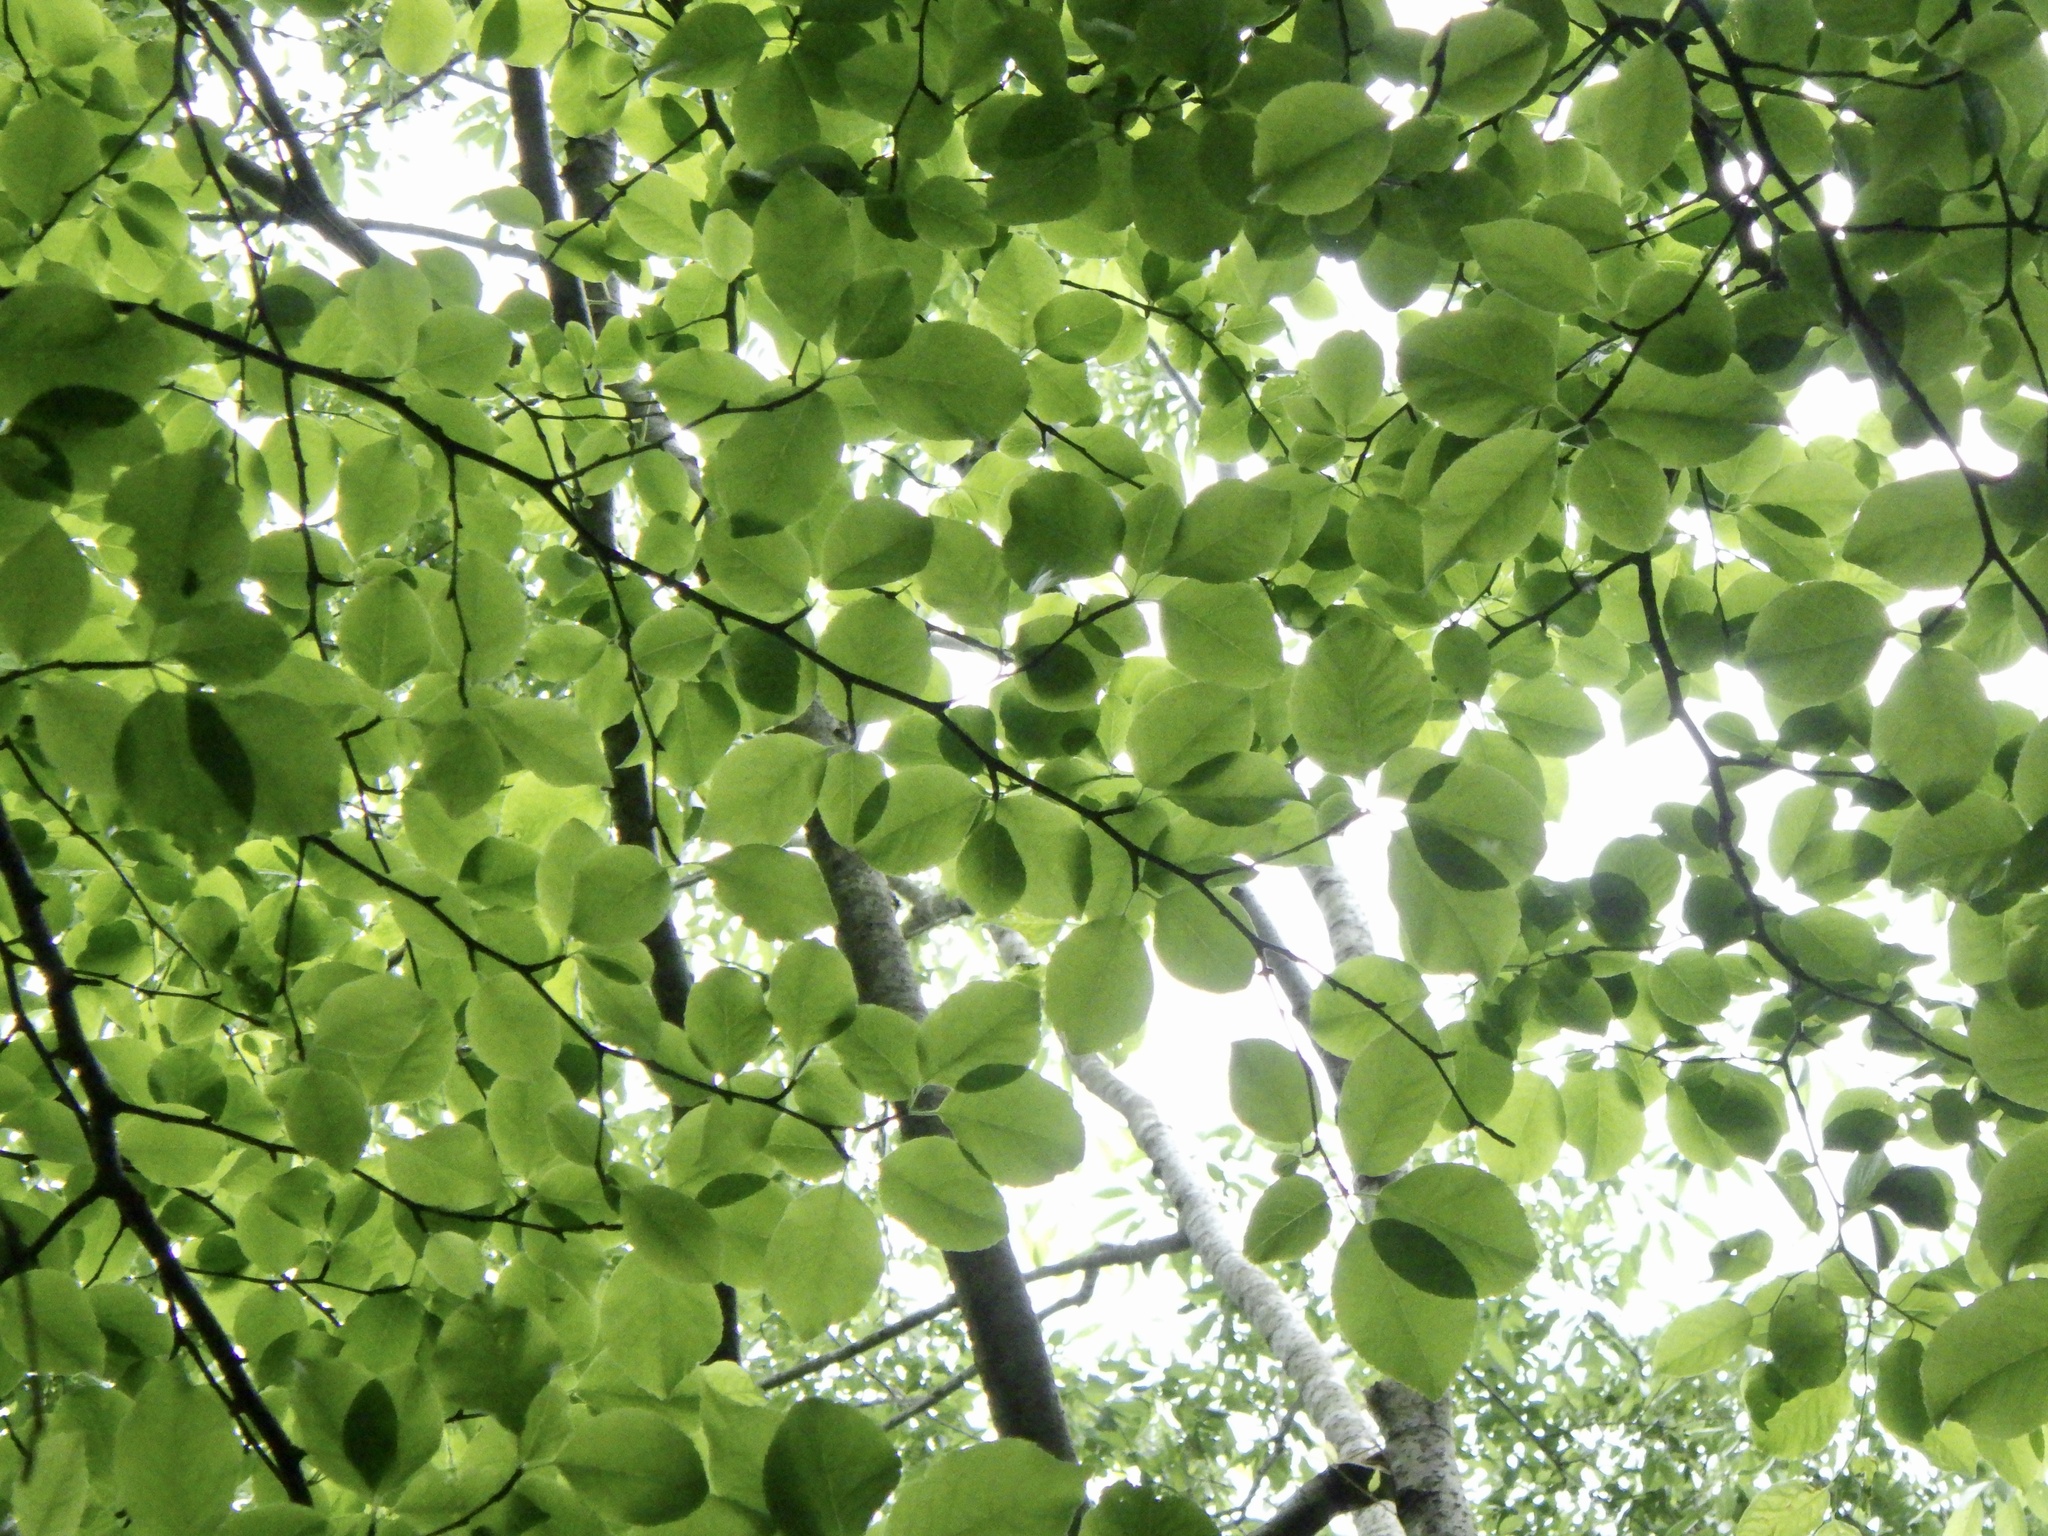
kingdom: Plantae
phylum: Tracheophyta
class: Magnoliopsida
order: Aquifoliales
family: Aquifoliaceae
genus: Ilex
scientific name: Ilex macropoda
